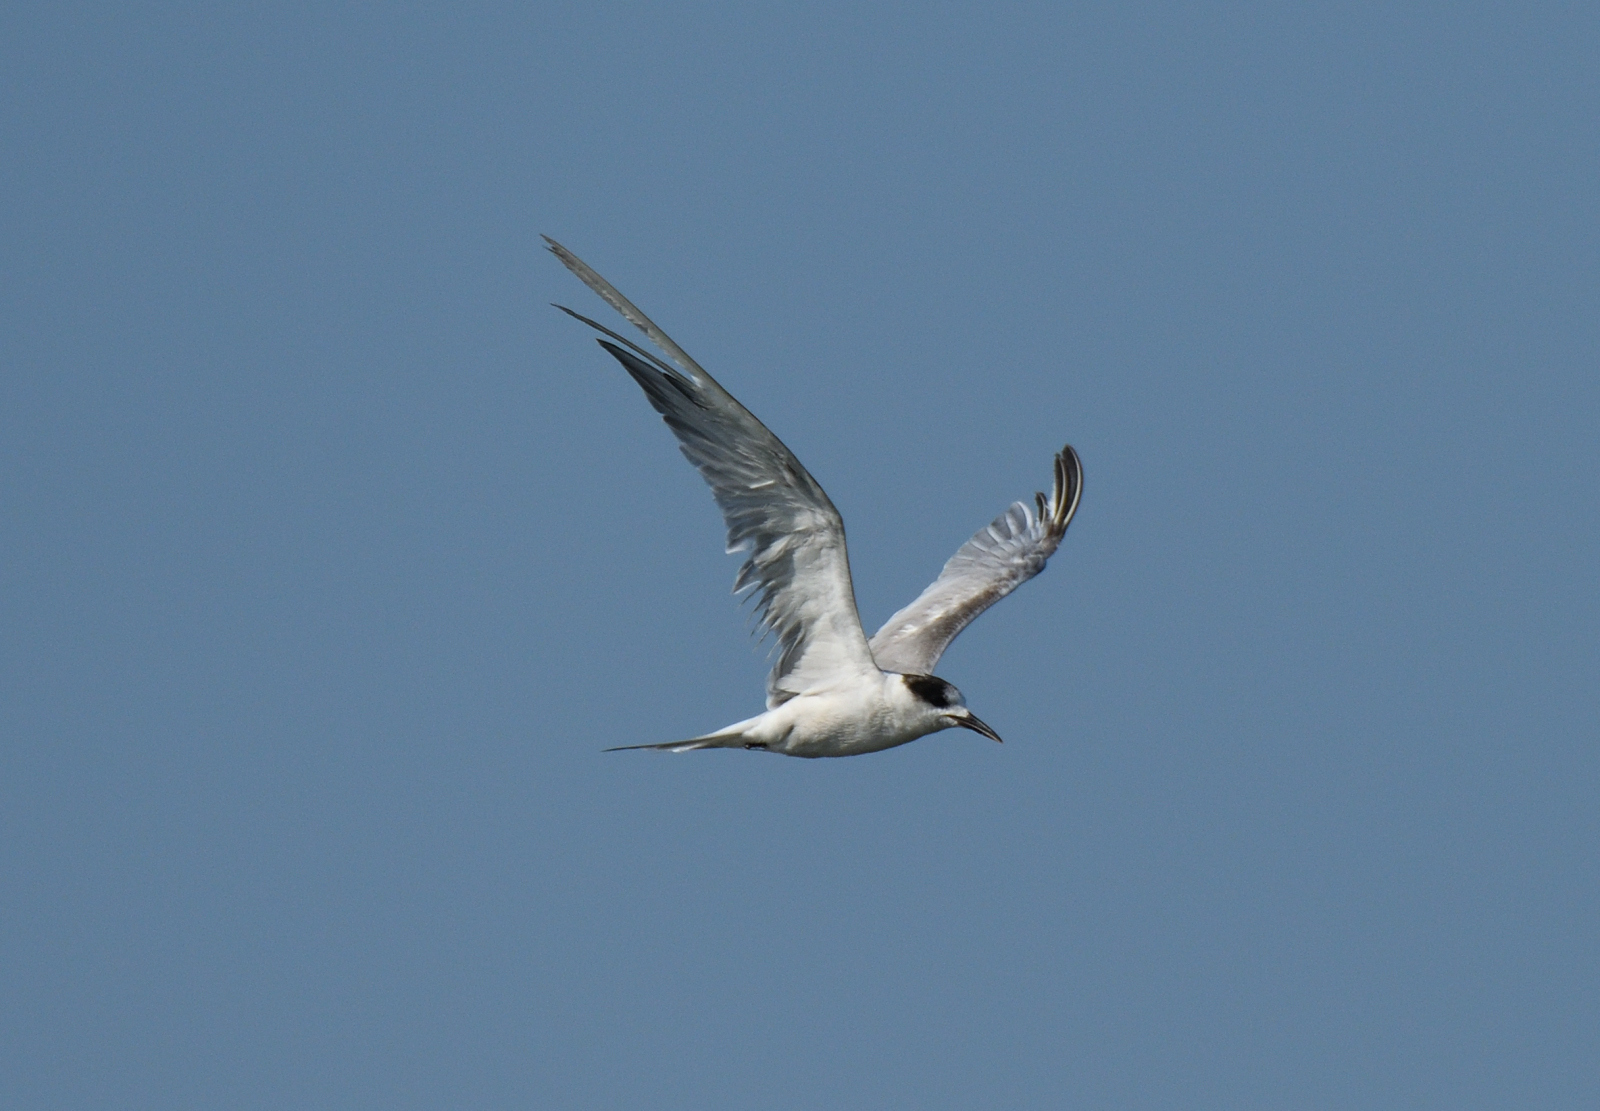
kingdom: Animalia
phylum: Chordata
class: Aves
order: Charadriiformes
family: Laridae
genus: Sterna
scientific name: Sterna hirundo
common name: Common tern
